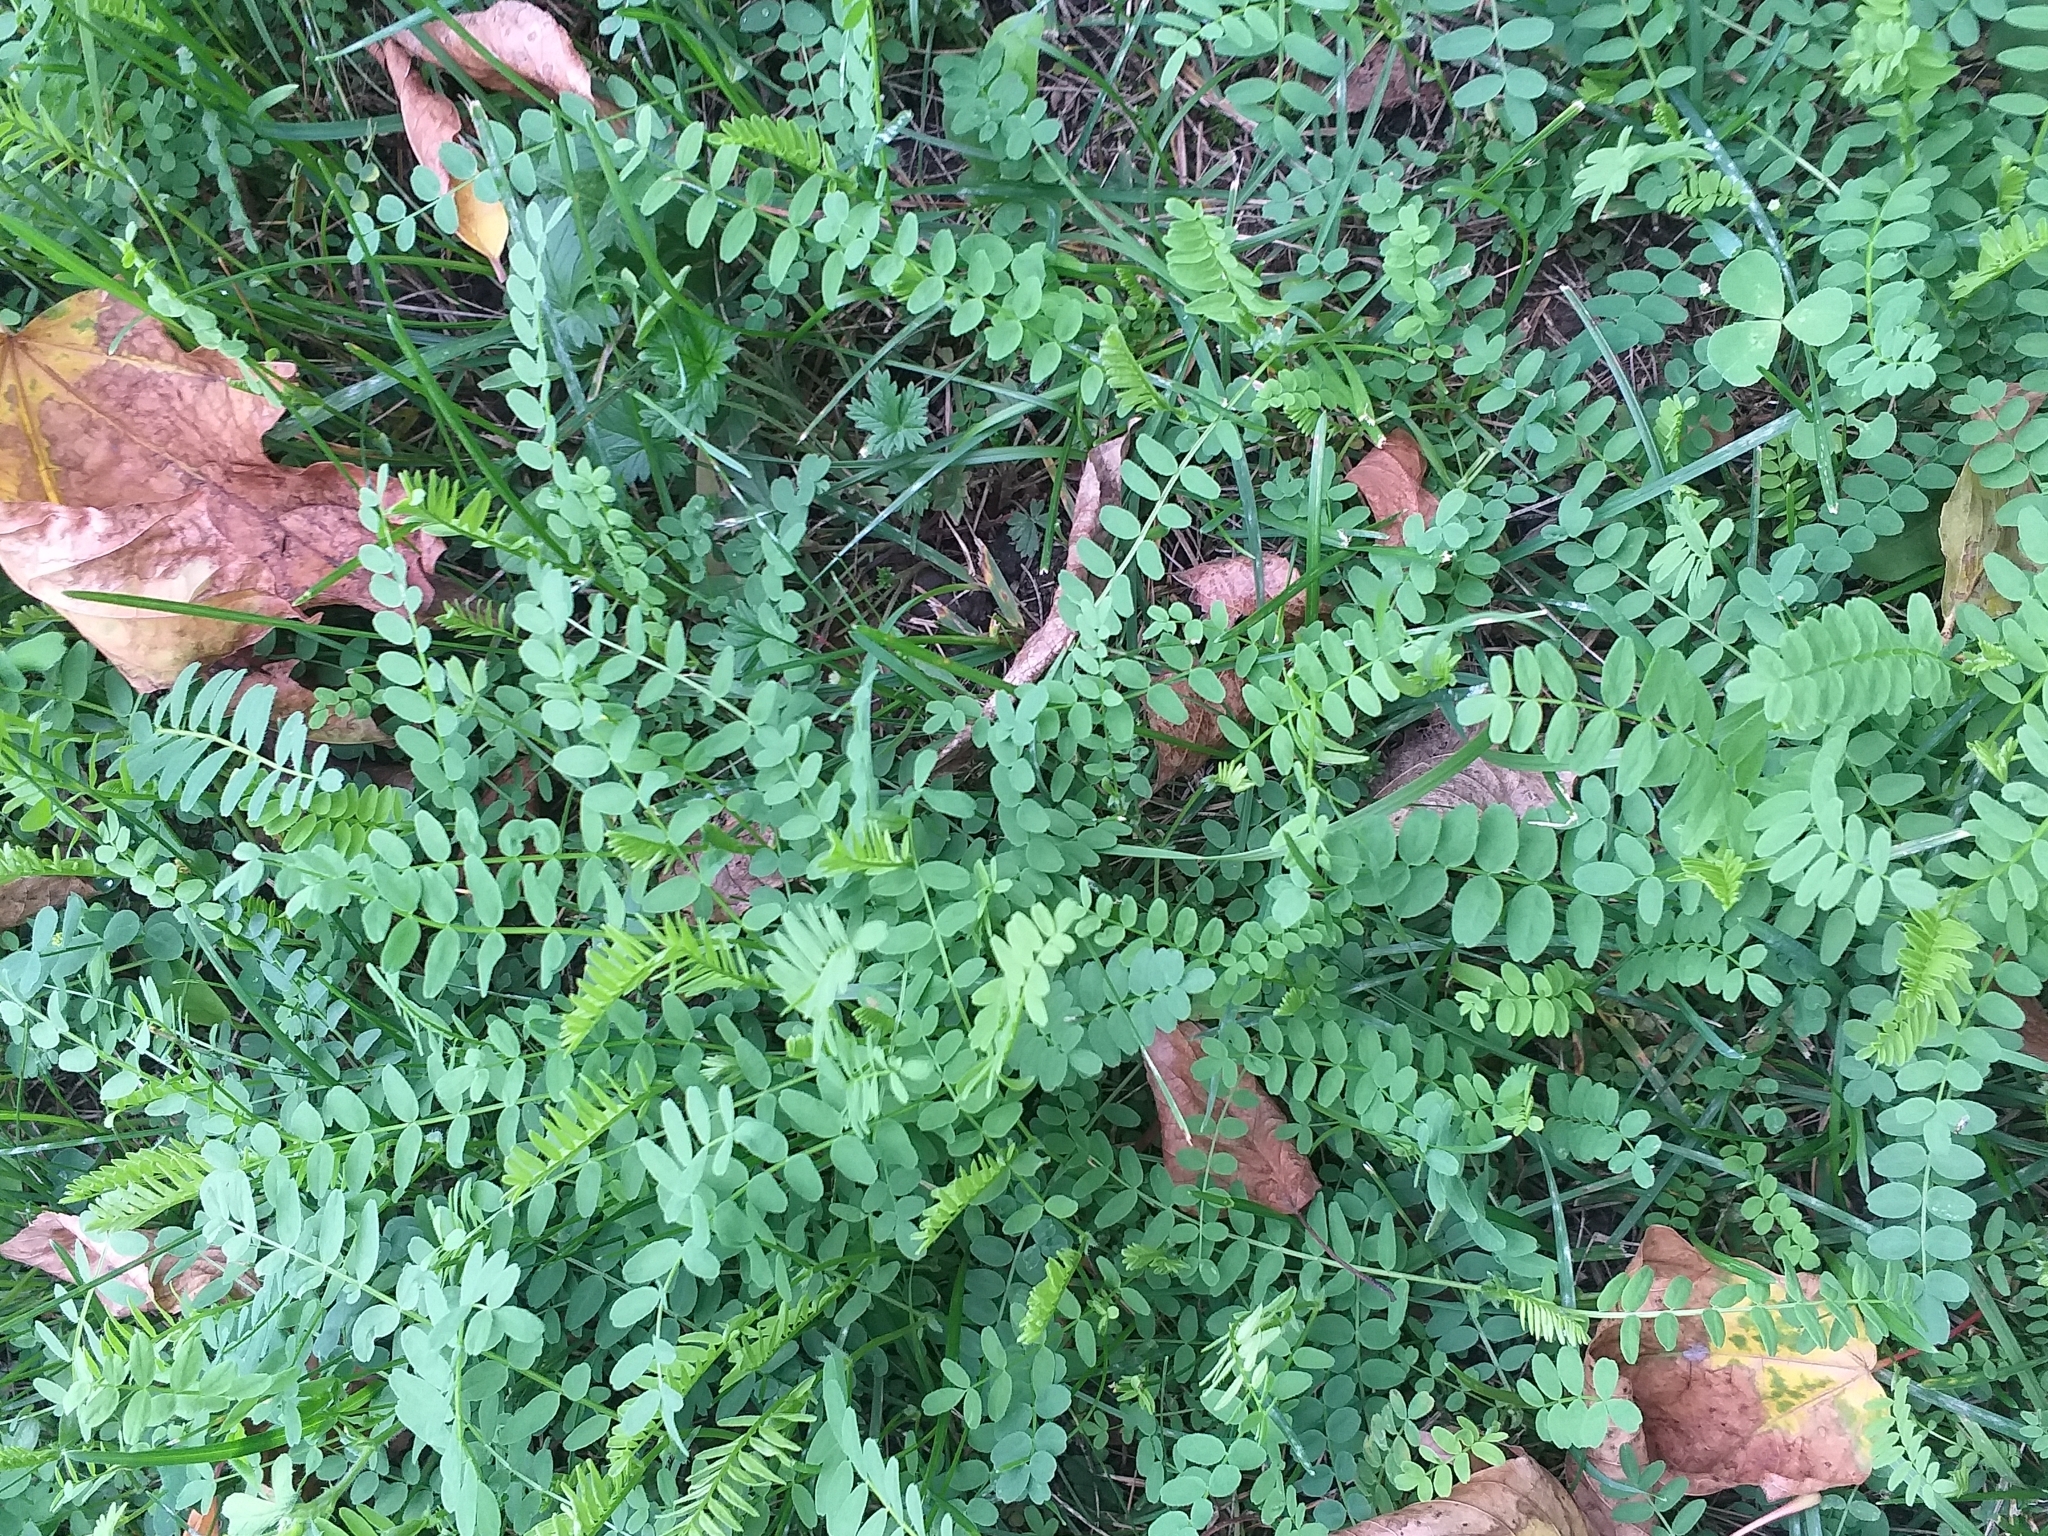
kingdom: Plantae
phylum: Tracheophyta
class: Magnoliopsida
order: Fabales
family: Fabaceae
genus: Vicia
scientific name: Vicia sylvatica
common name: Wood vetch
